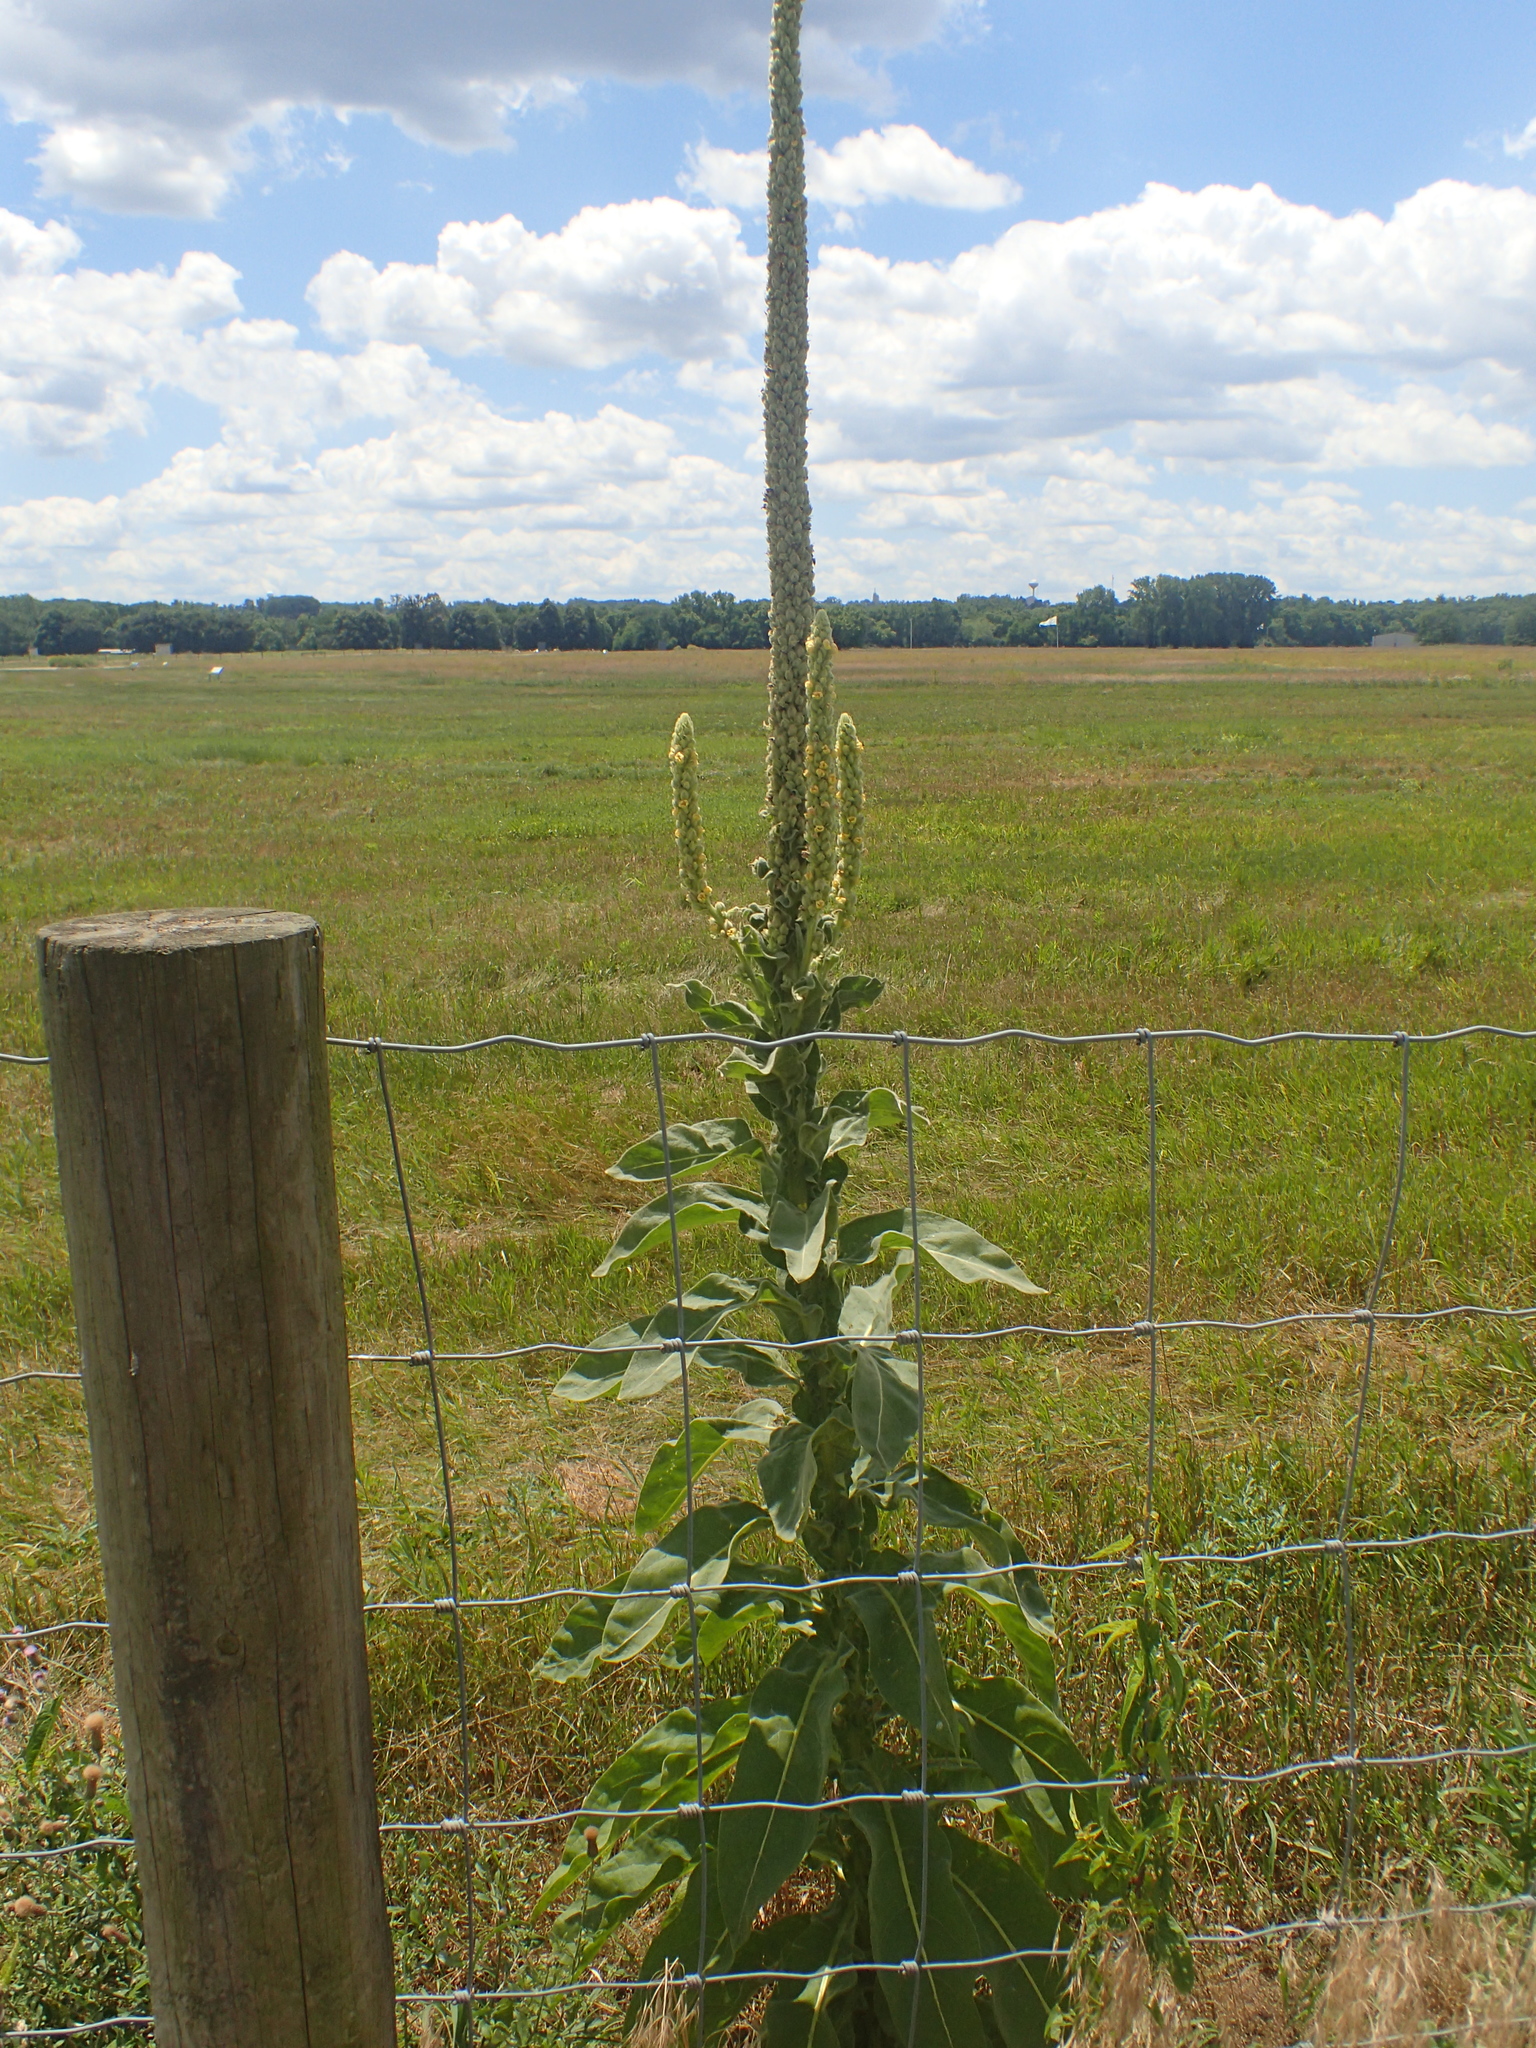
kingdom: Plantae
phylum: Tracheophyta
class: Magnoliopsida
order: Lamiales
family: Scrophulariaceae
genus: Verbascum
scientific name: Verbascum thapsus
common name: Common mullein
